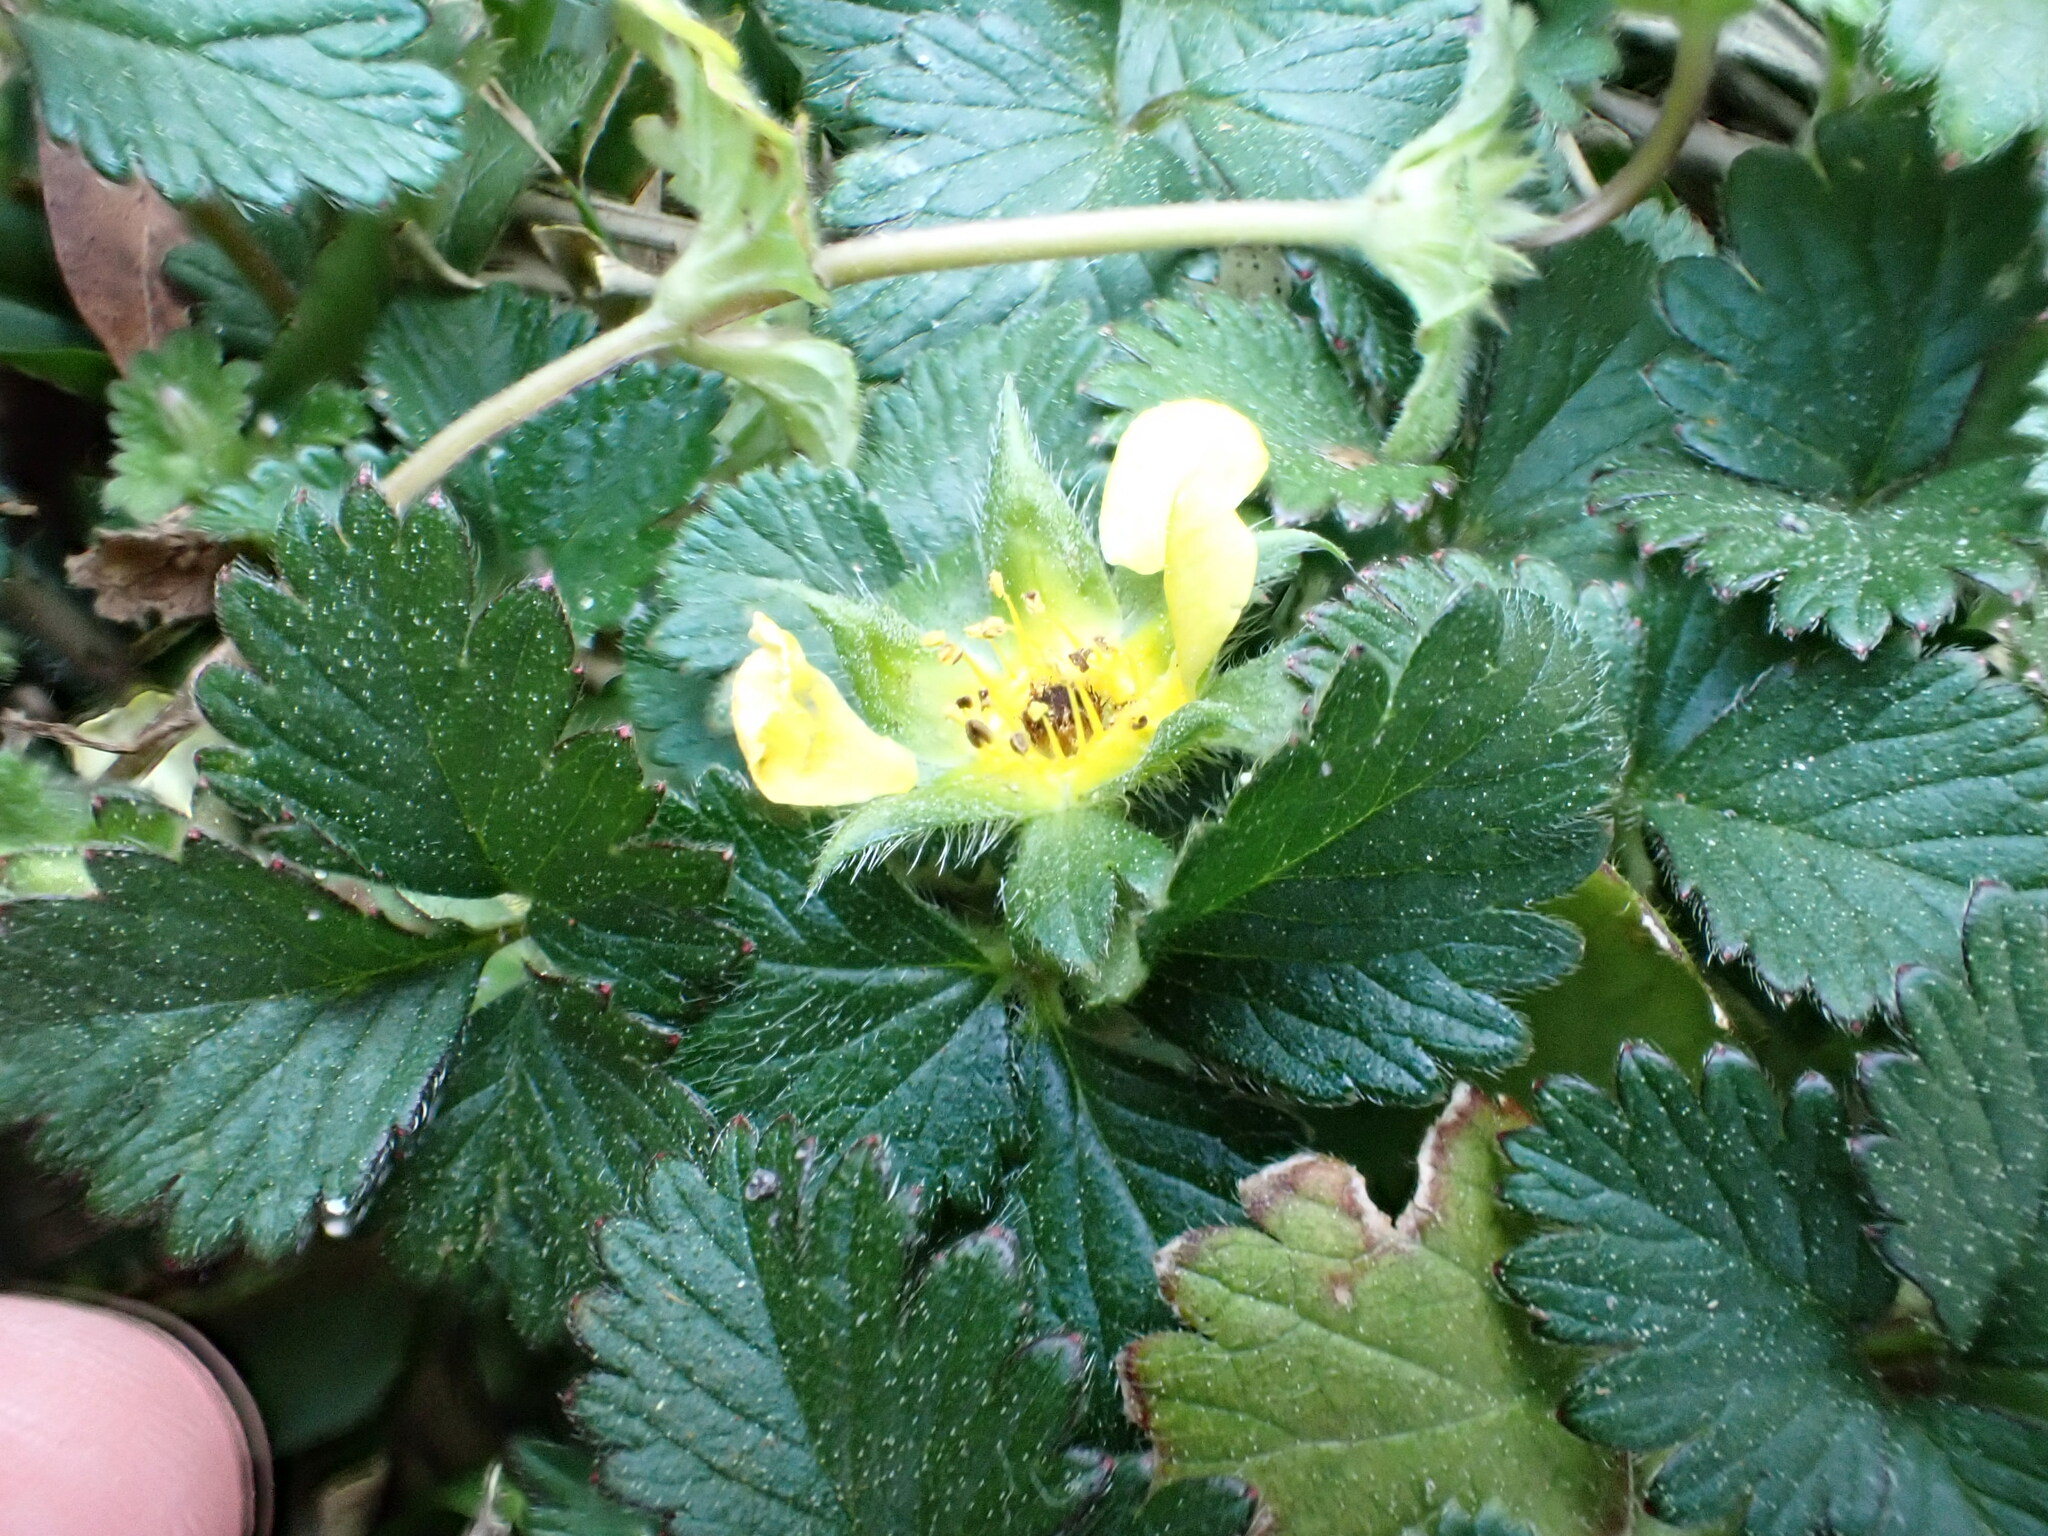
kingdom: Plantae
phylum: Tracheophyta
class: Magnoliopsida
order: Rosales
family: Rosaceae
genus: Potentilla
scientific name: Potentilla indica
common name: Yellow-flowered strawberry
